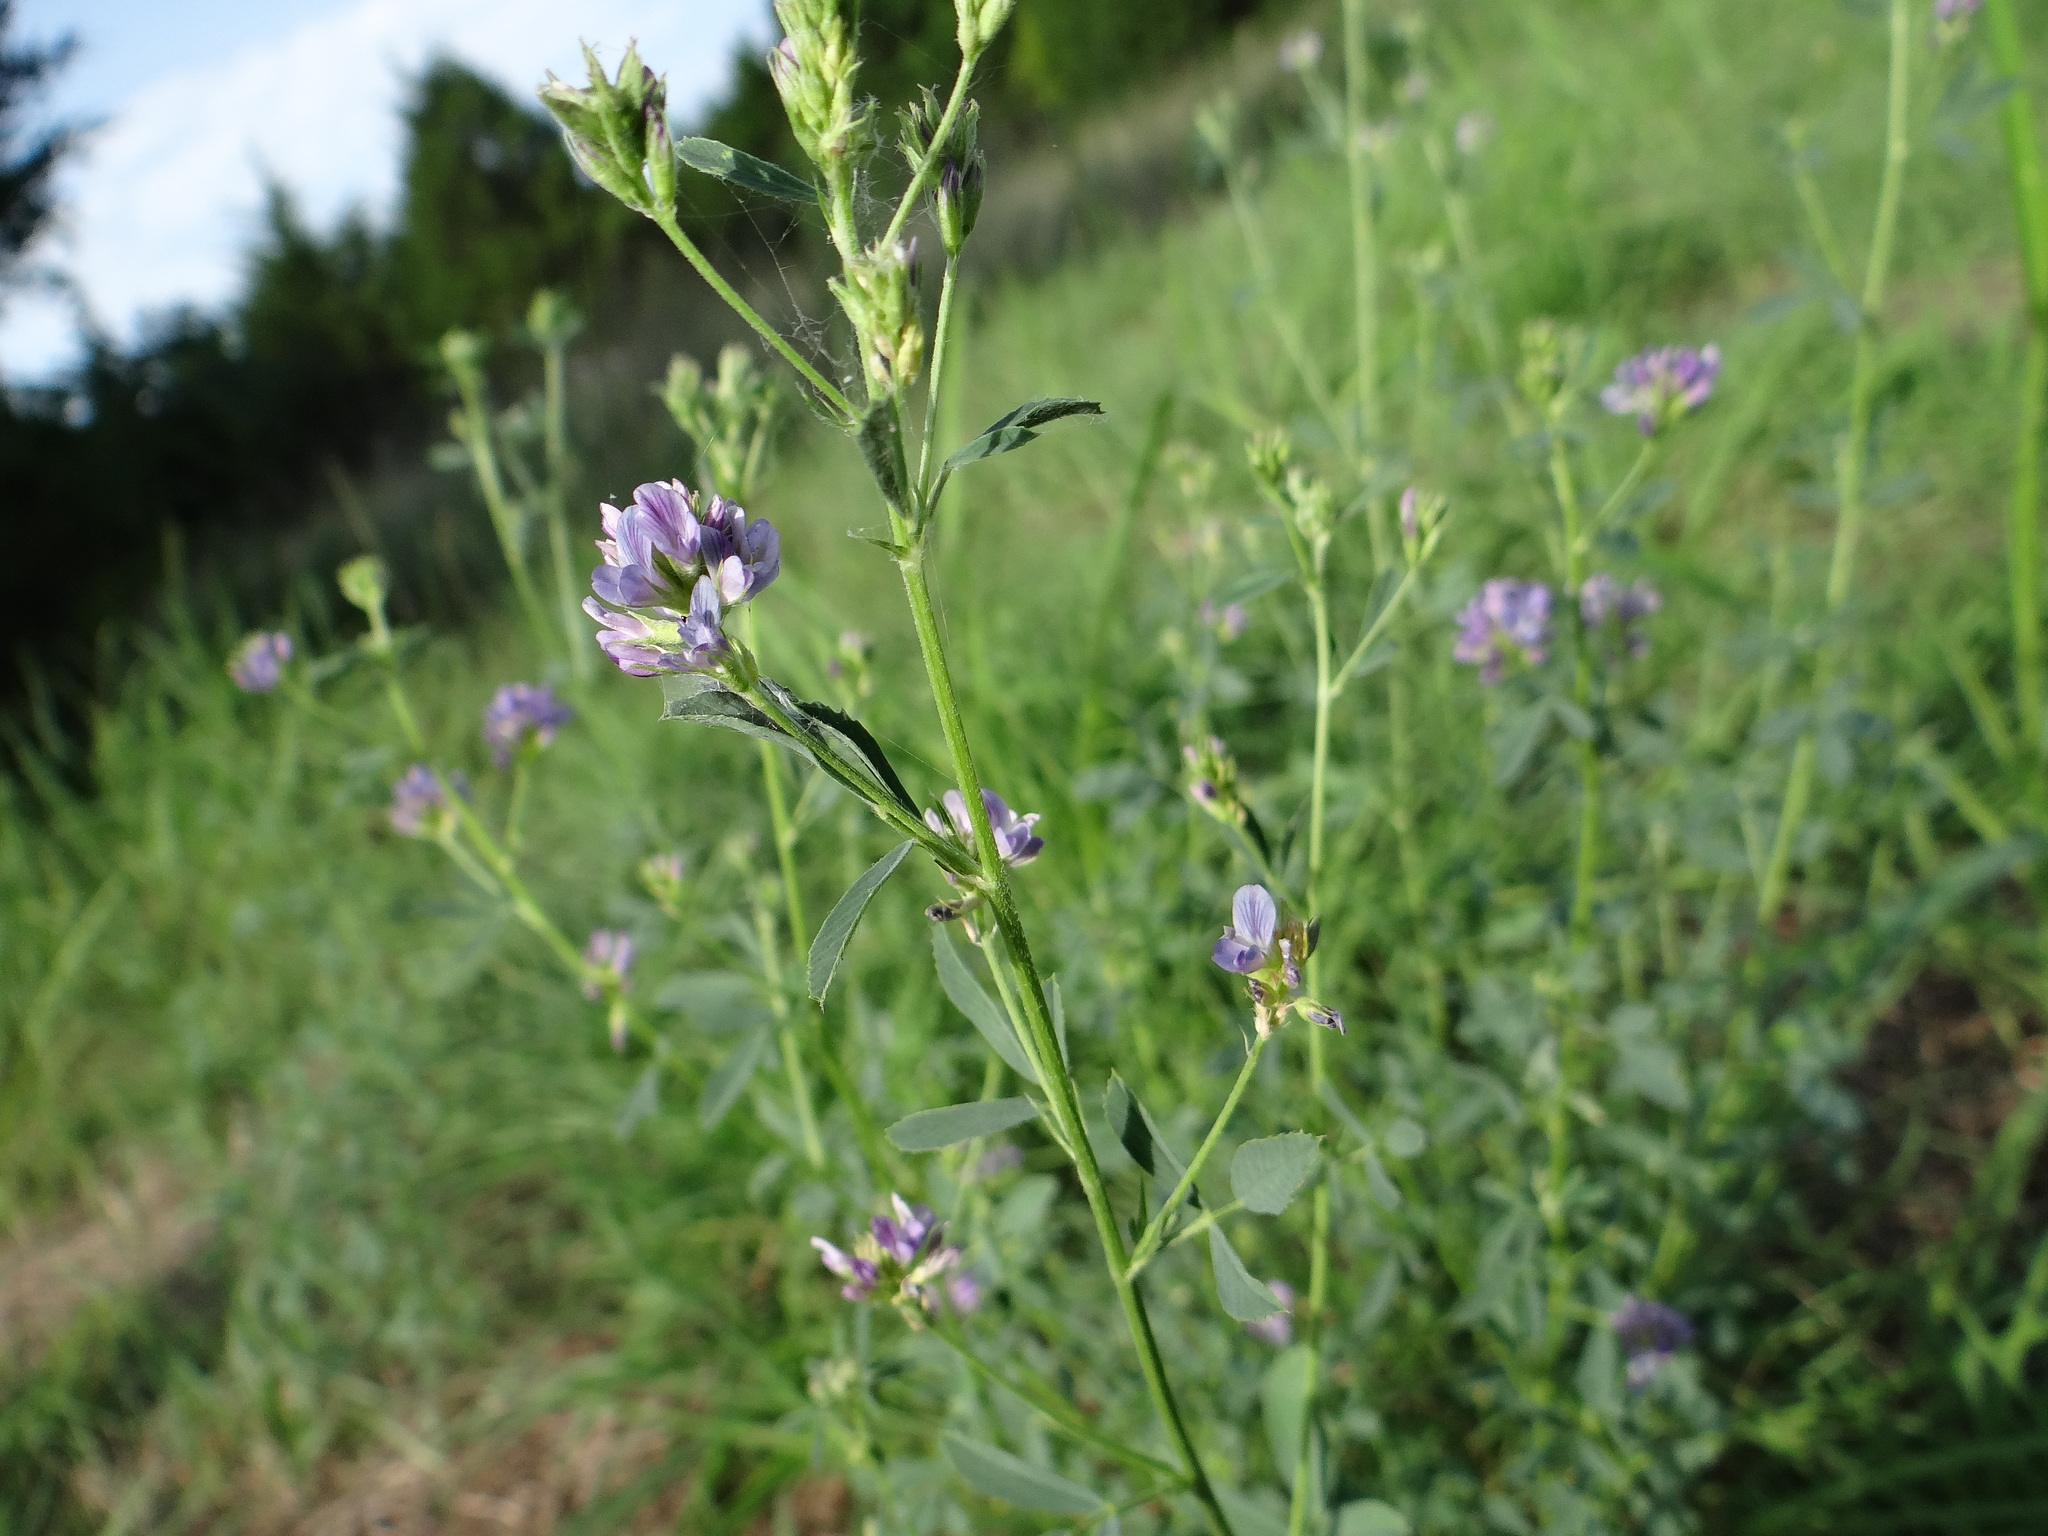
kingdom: Plantae
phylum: Tracheophyta
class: Magnoliopsida
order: Fabales
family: Fabaceae
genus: Medicago
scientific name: Medicago sativa
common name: Alfalfa
